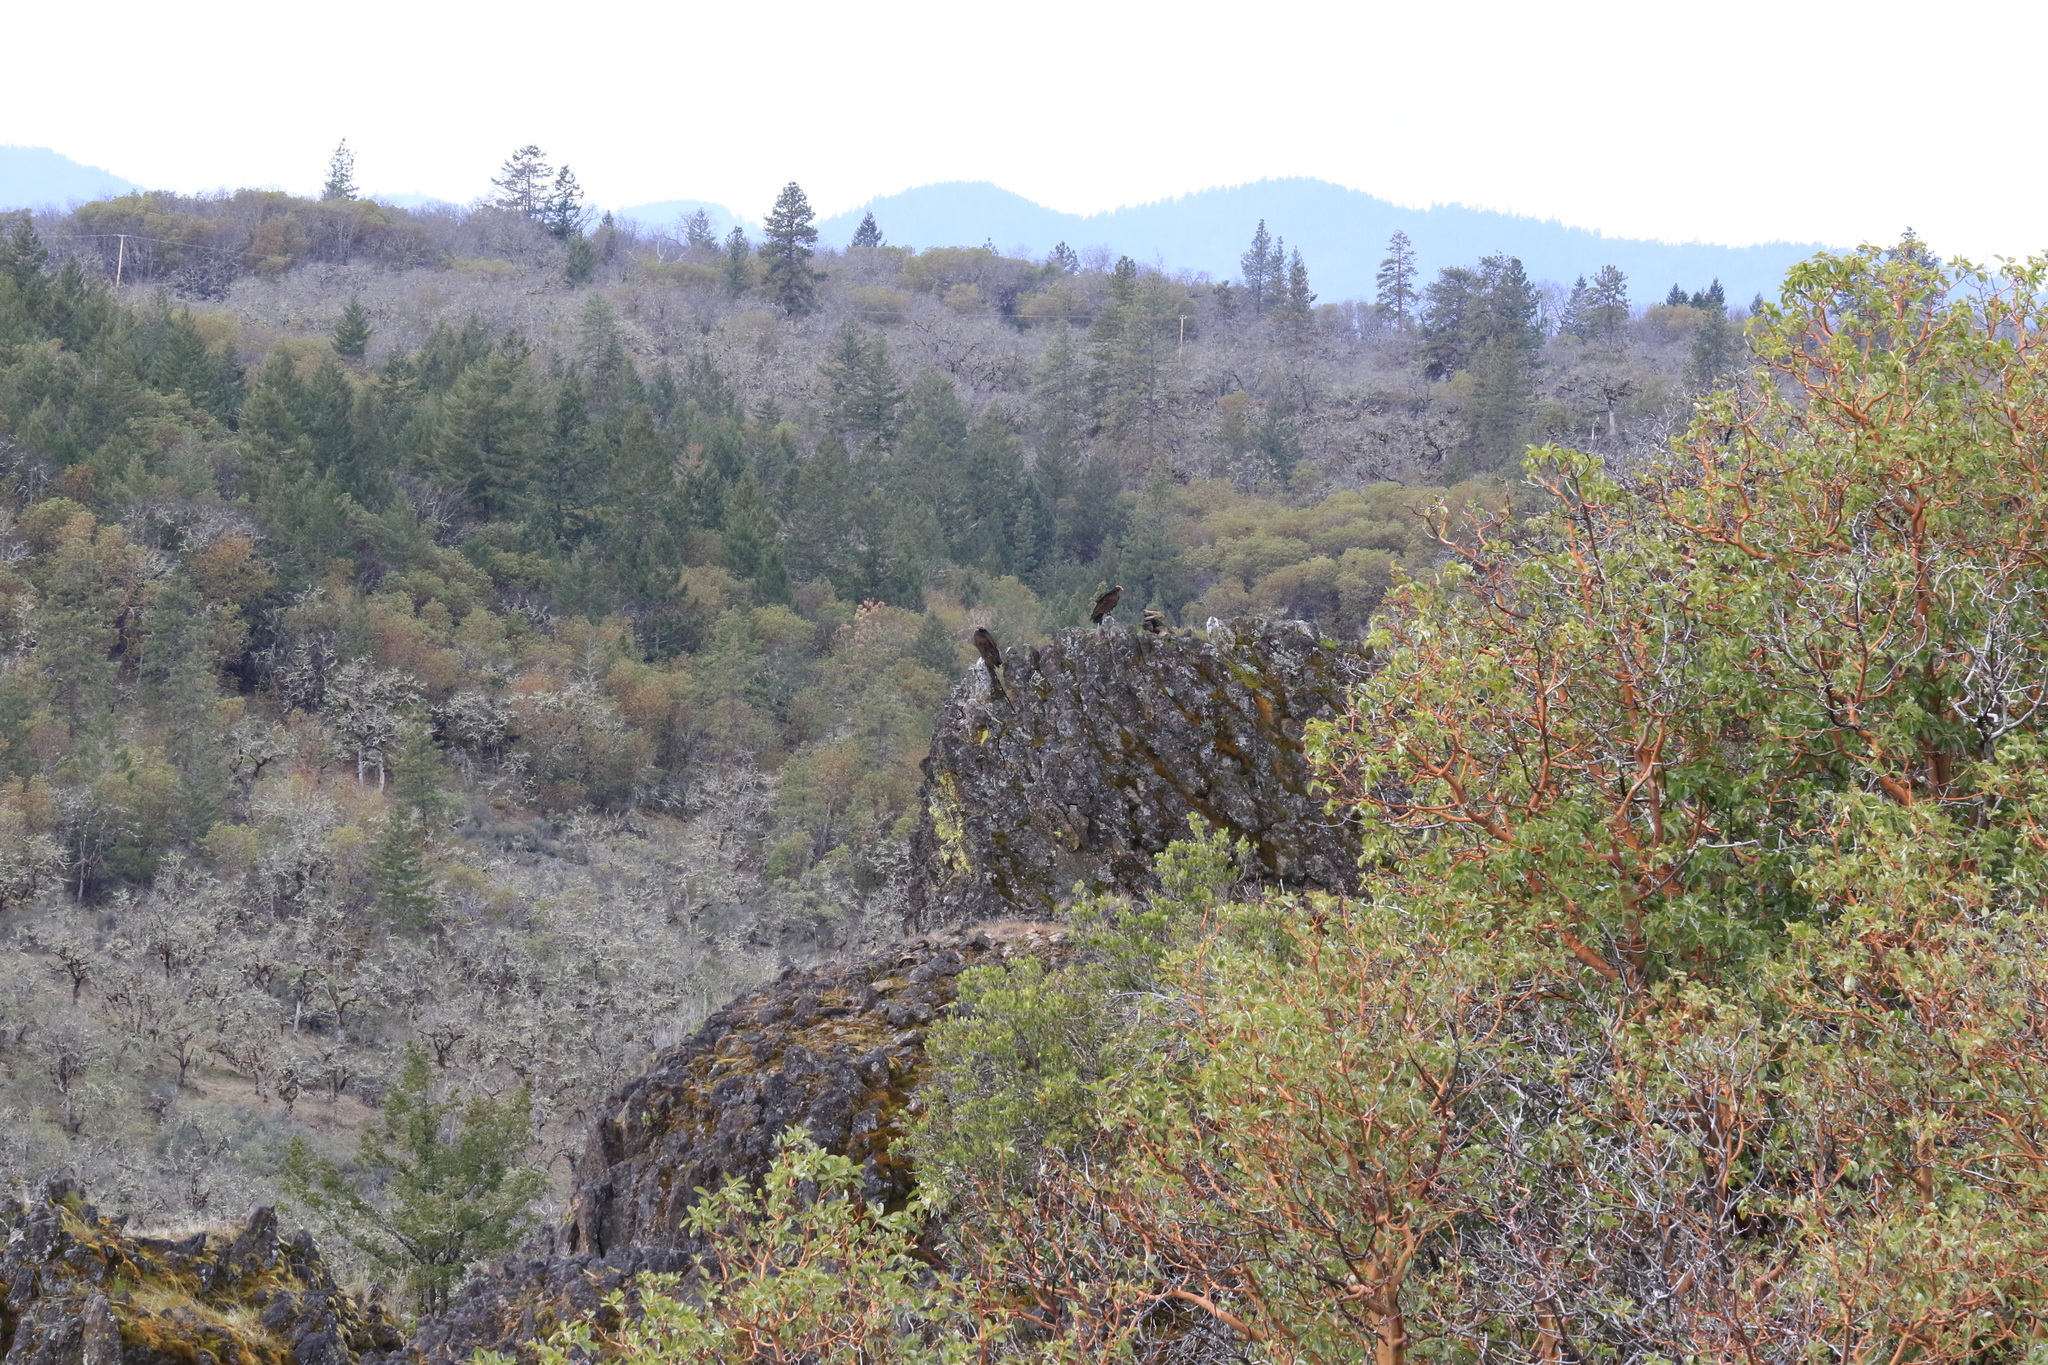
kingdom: Animalia
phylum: Chordata
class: Aves
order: Accipitriformes
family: Cathartidae
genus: Cathartes
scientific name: Cathartes aura
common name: Turkey vulture
